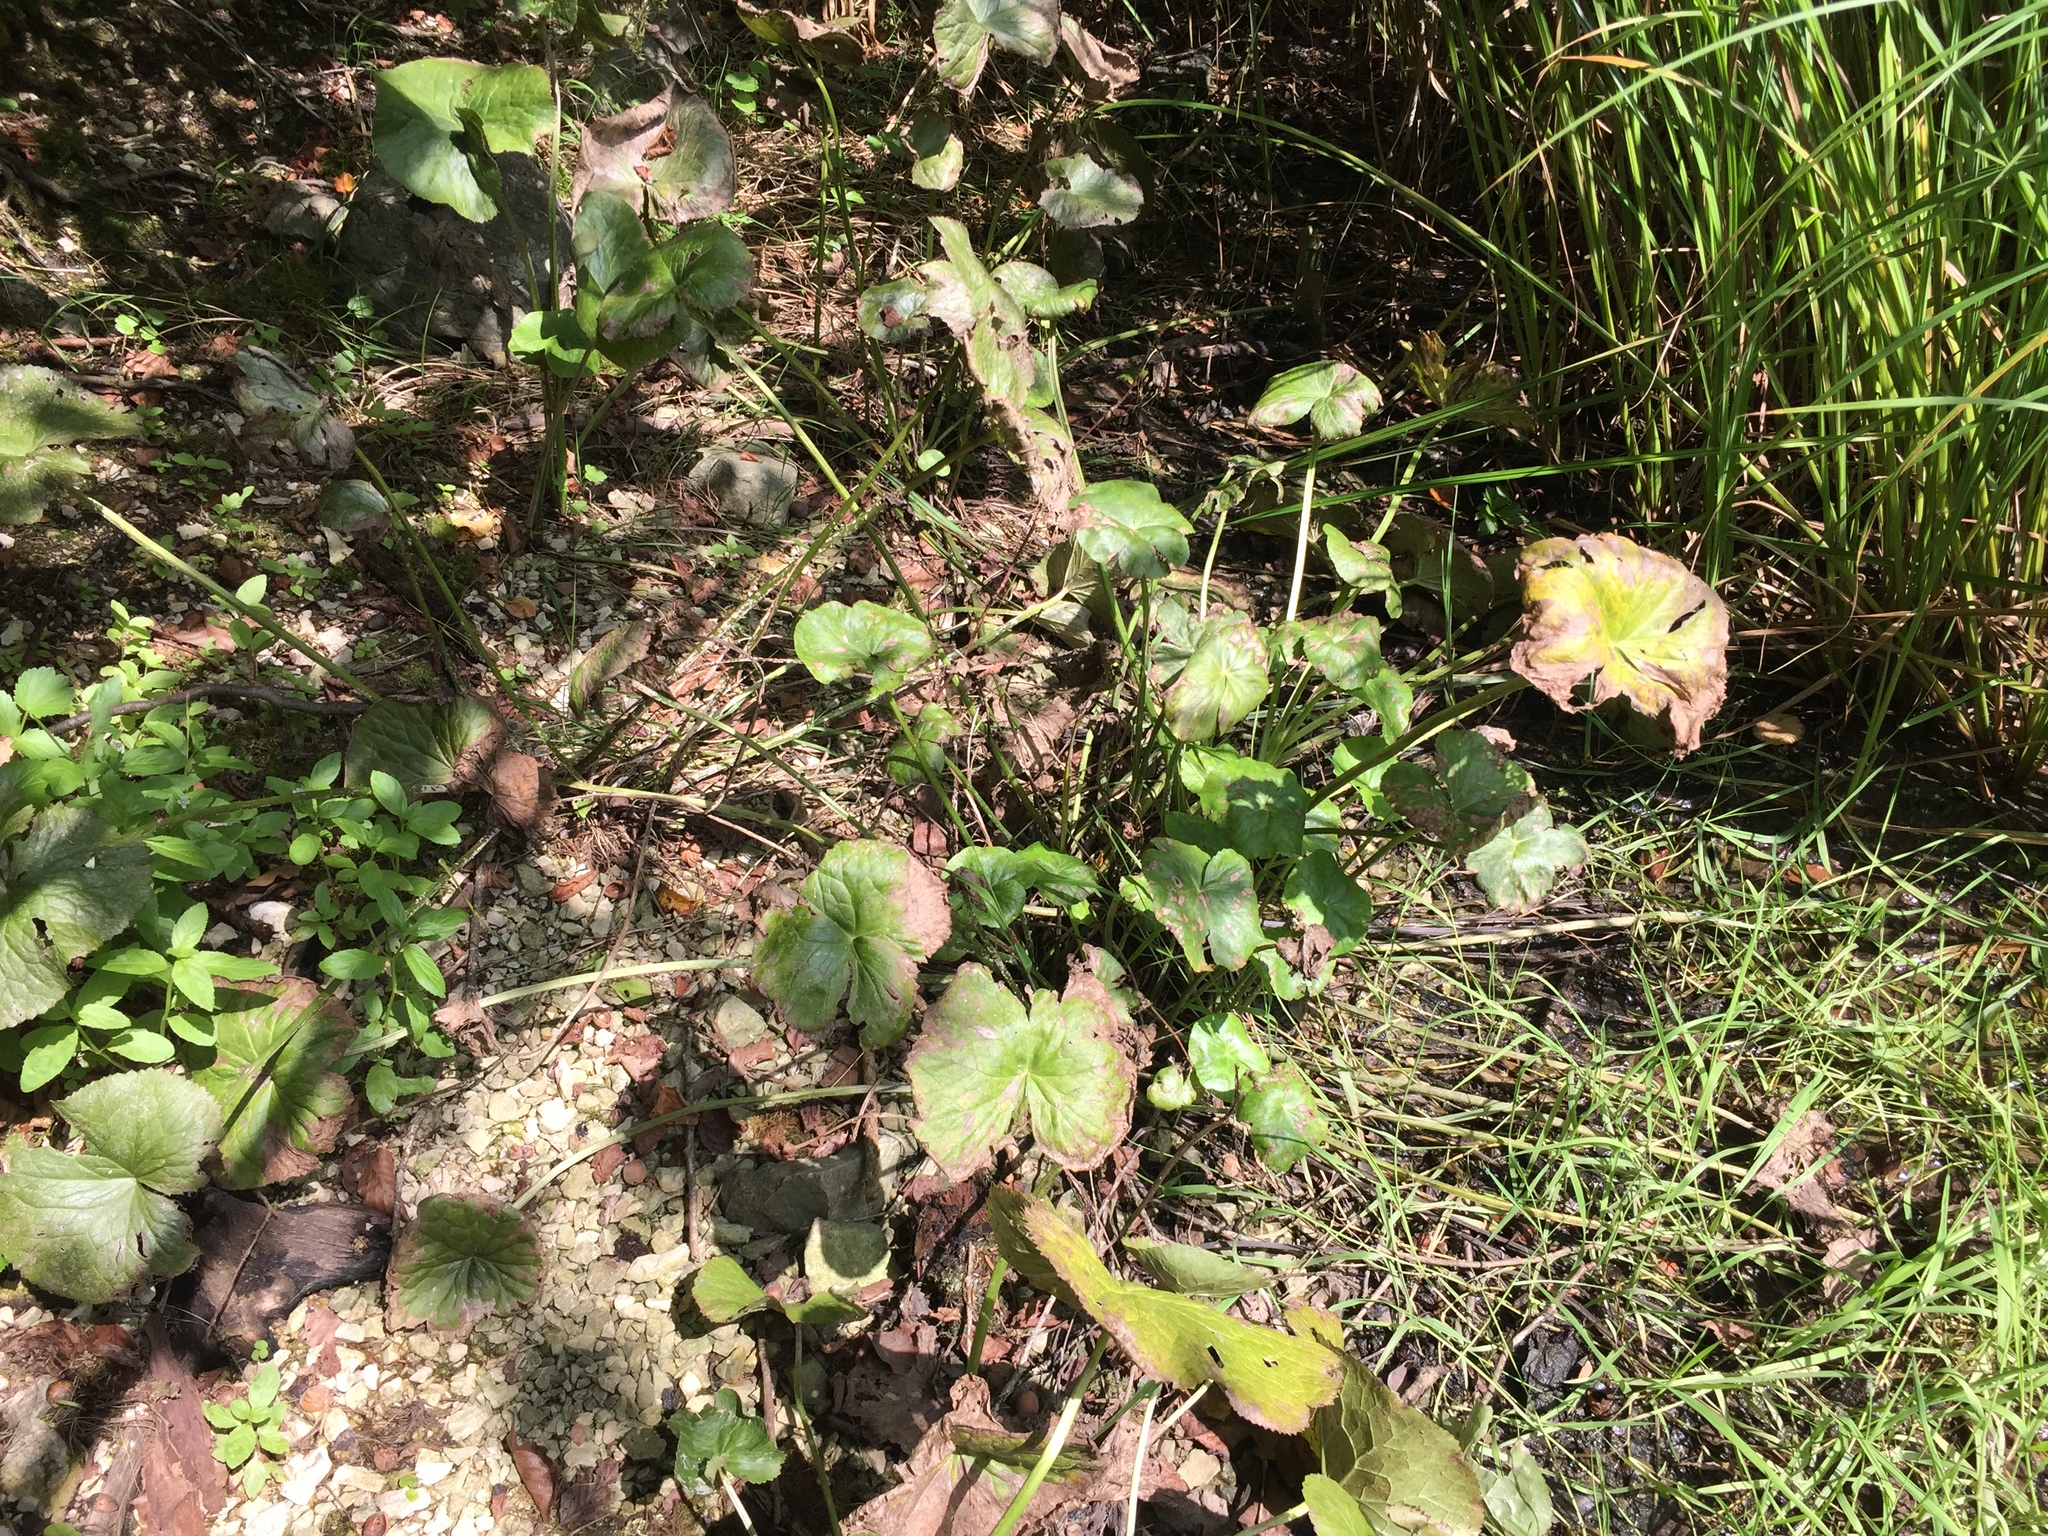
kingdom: Plantae
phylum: Tracheophyta
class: Magnoliopsida
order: Ranunculales
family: Ranunculaceae
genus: Caltha
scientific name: Caltha palustris
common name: Marsh marigold
